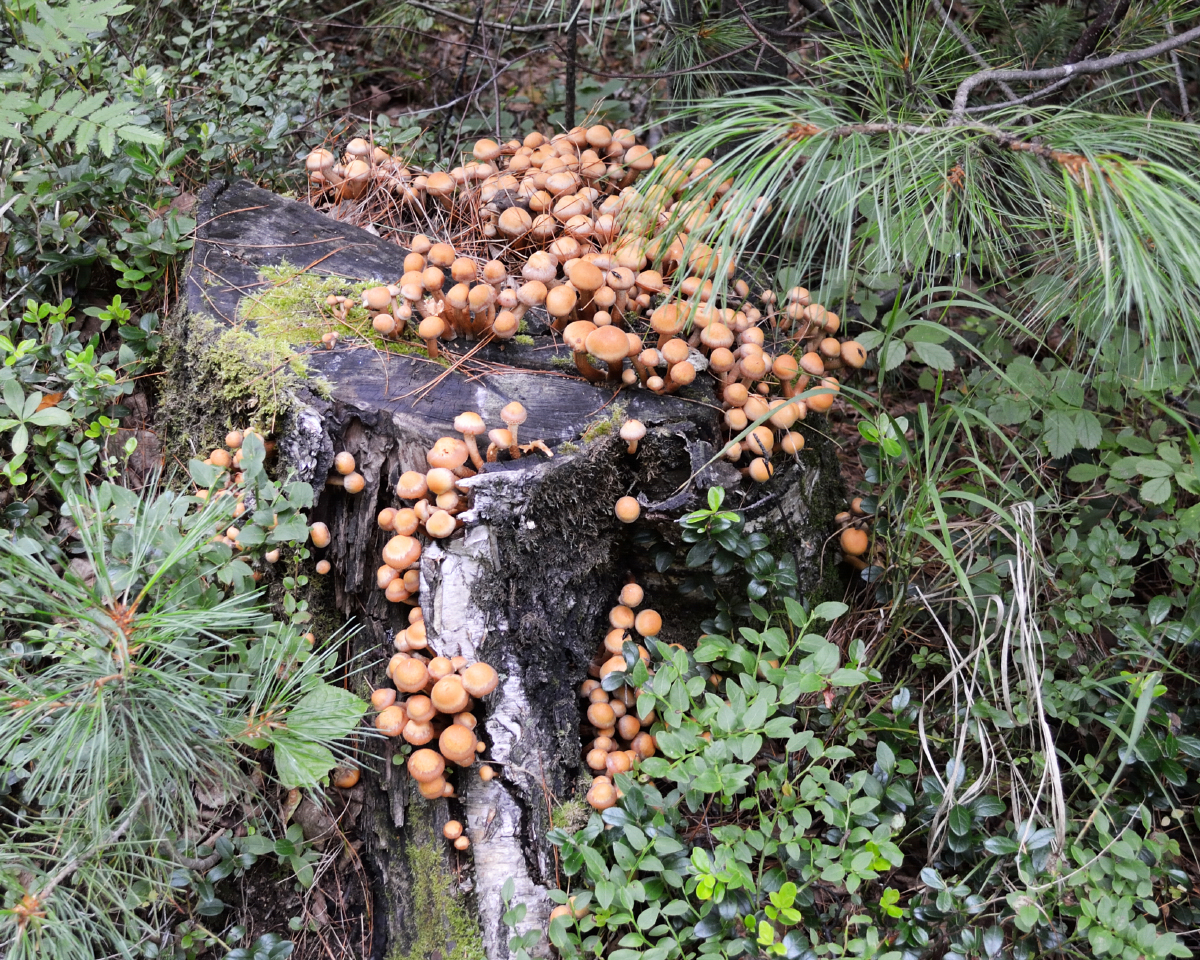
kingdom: Fungi
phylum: Basidiomycota
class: Agaricomycetes
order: Agaricales
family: Strophariaceae
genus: Kuehneromyces
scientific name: Kuehneromyces mutabilis
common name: Sheathed woodtuft
